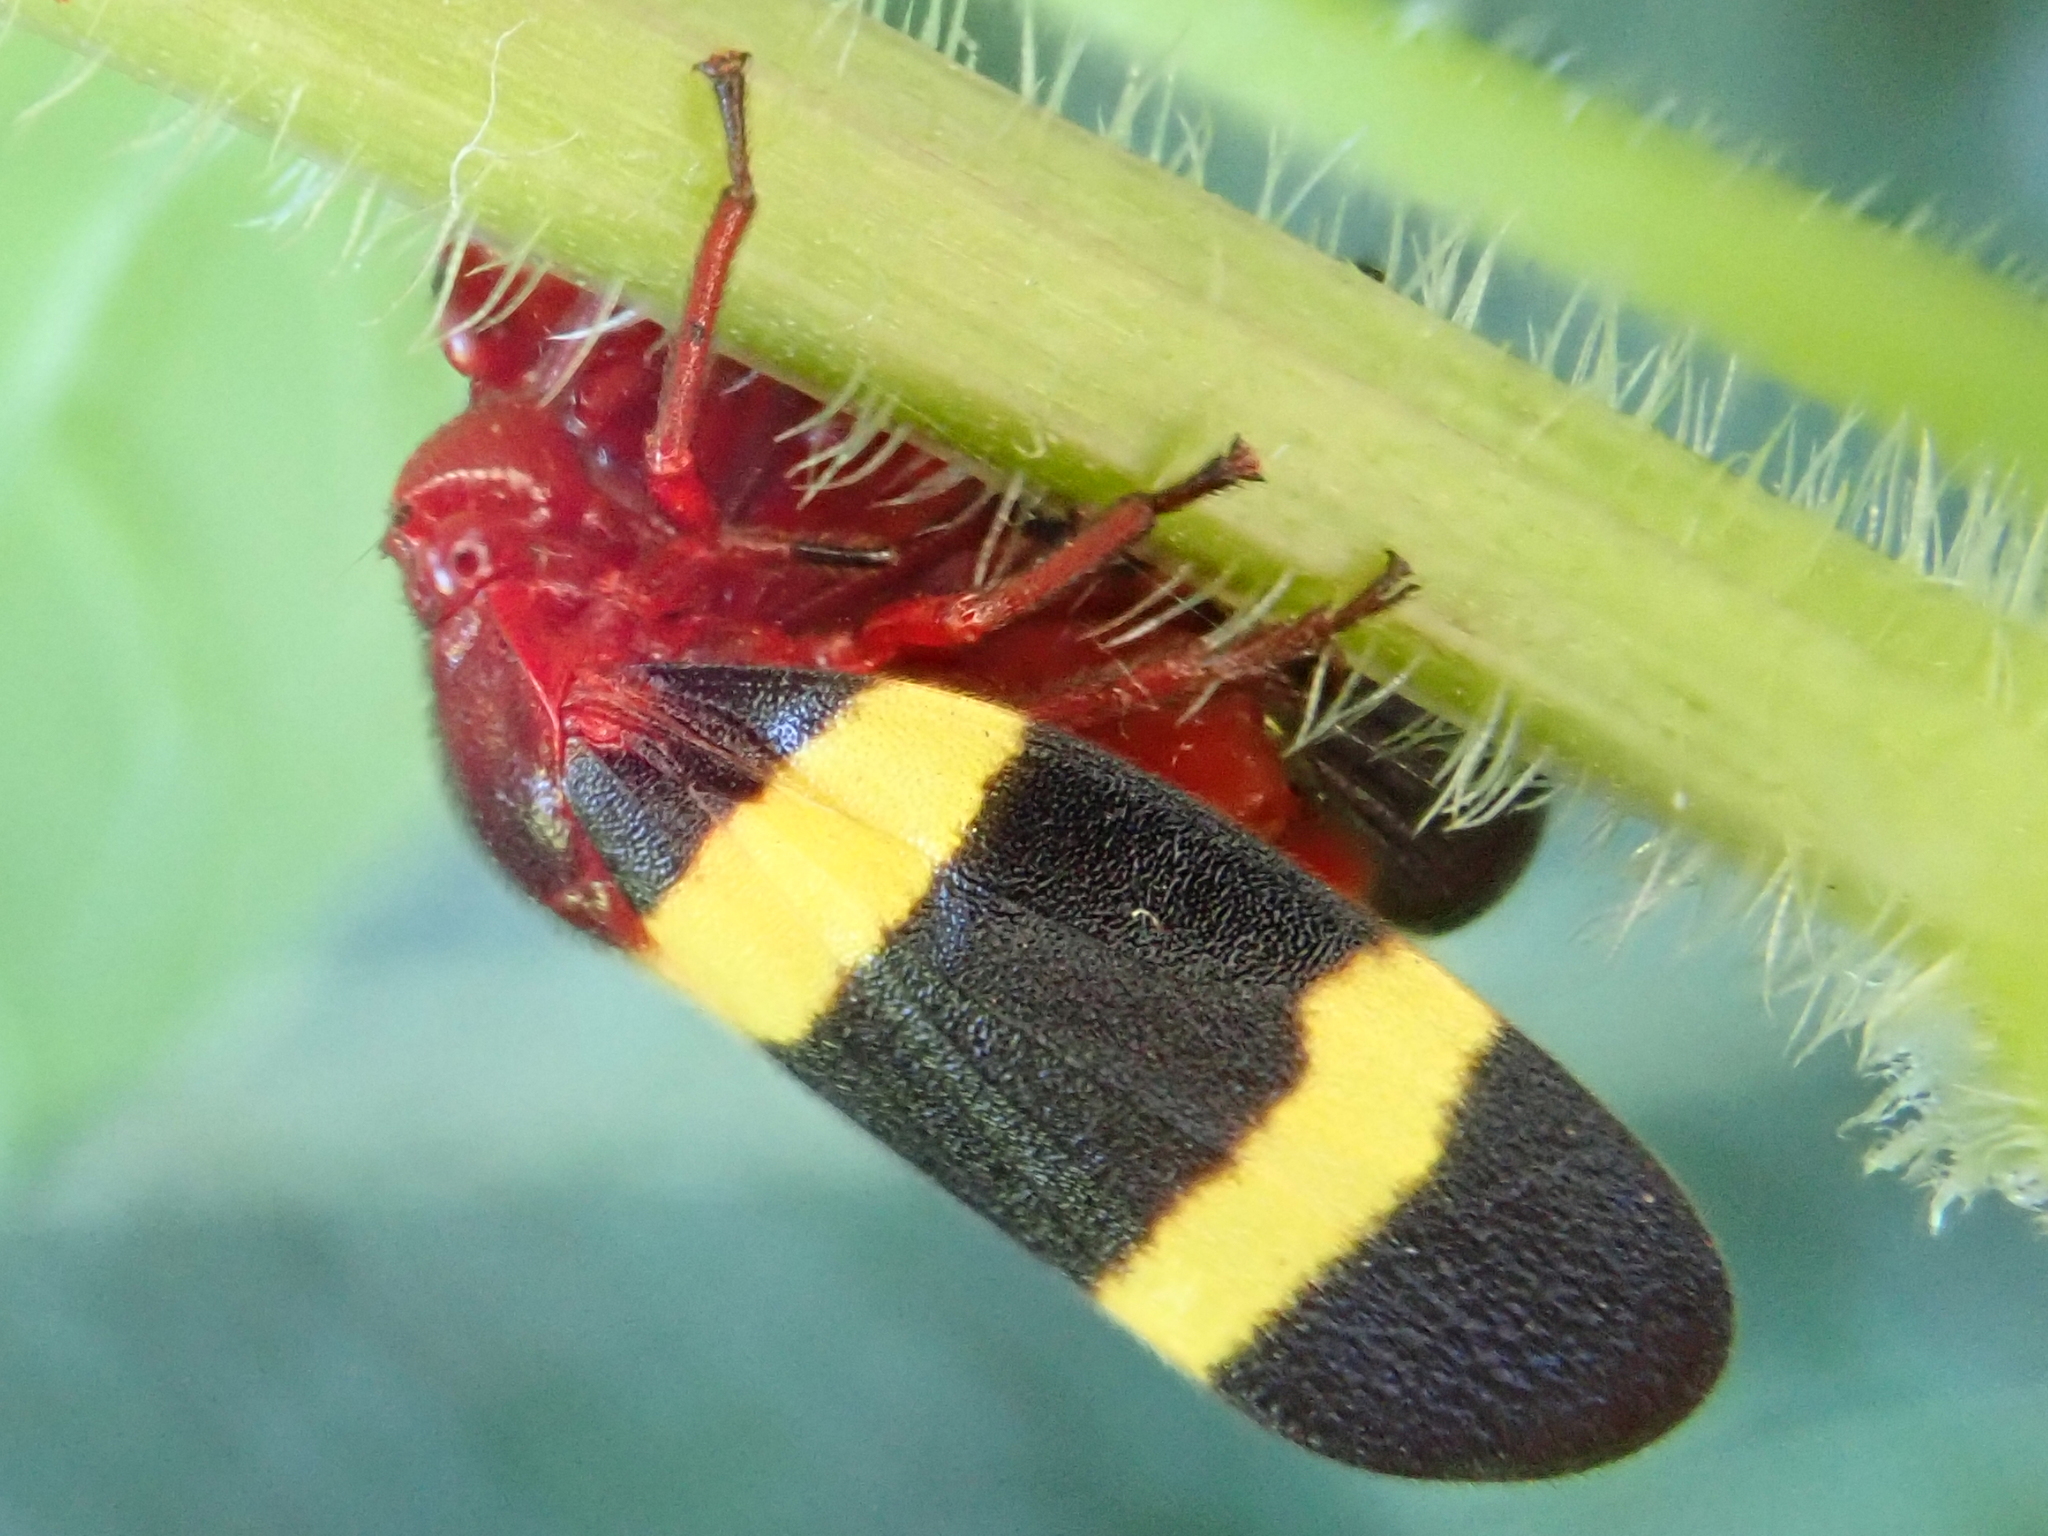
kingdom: Animalia
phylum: Arthropoda
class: Insecta
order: Hemiptera
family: Cercopidae
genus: Sphenorhina
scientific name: Sphenorhina rubra
